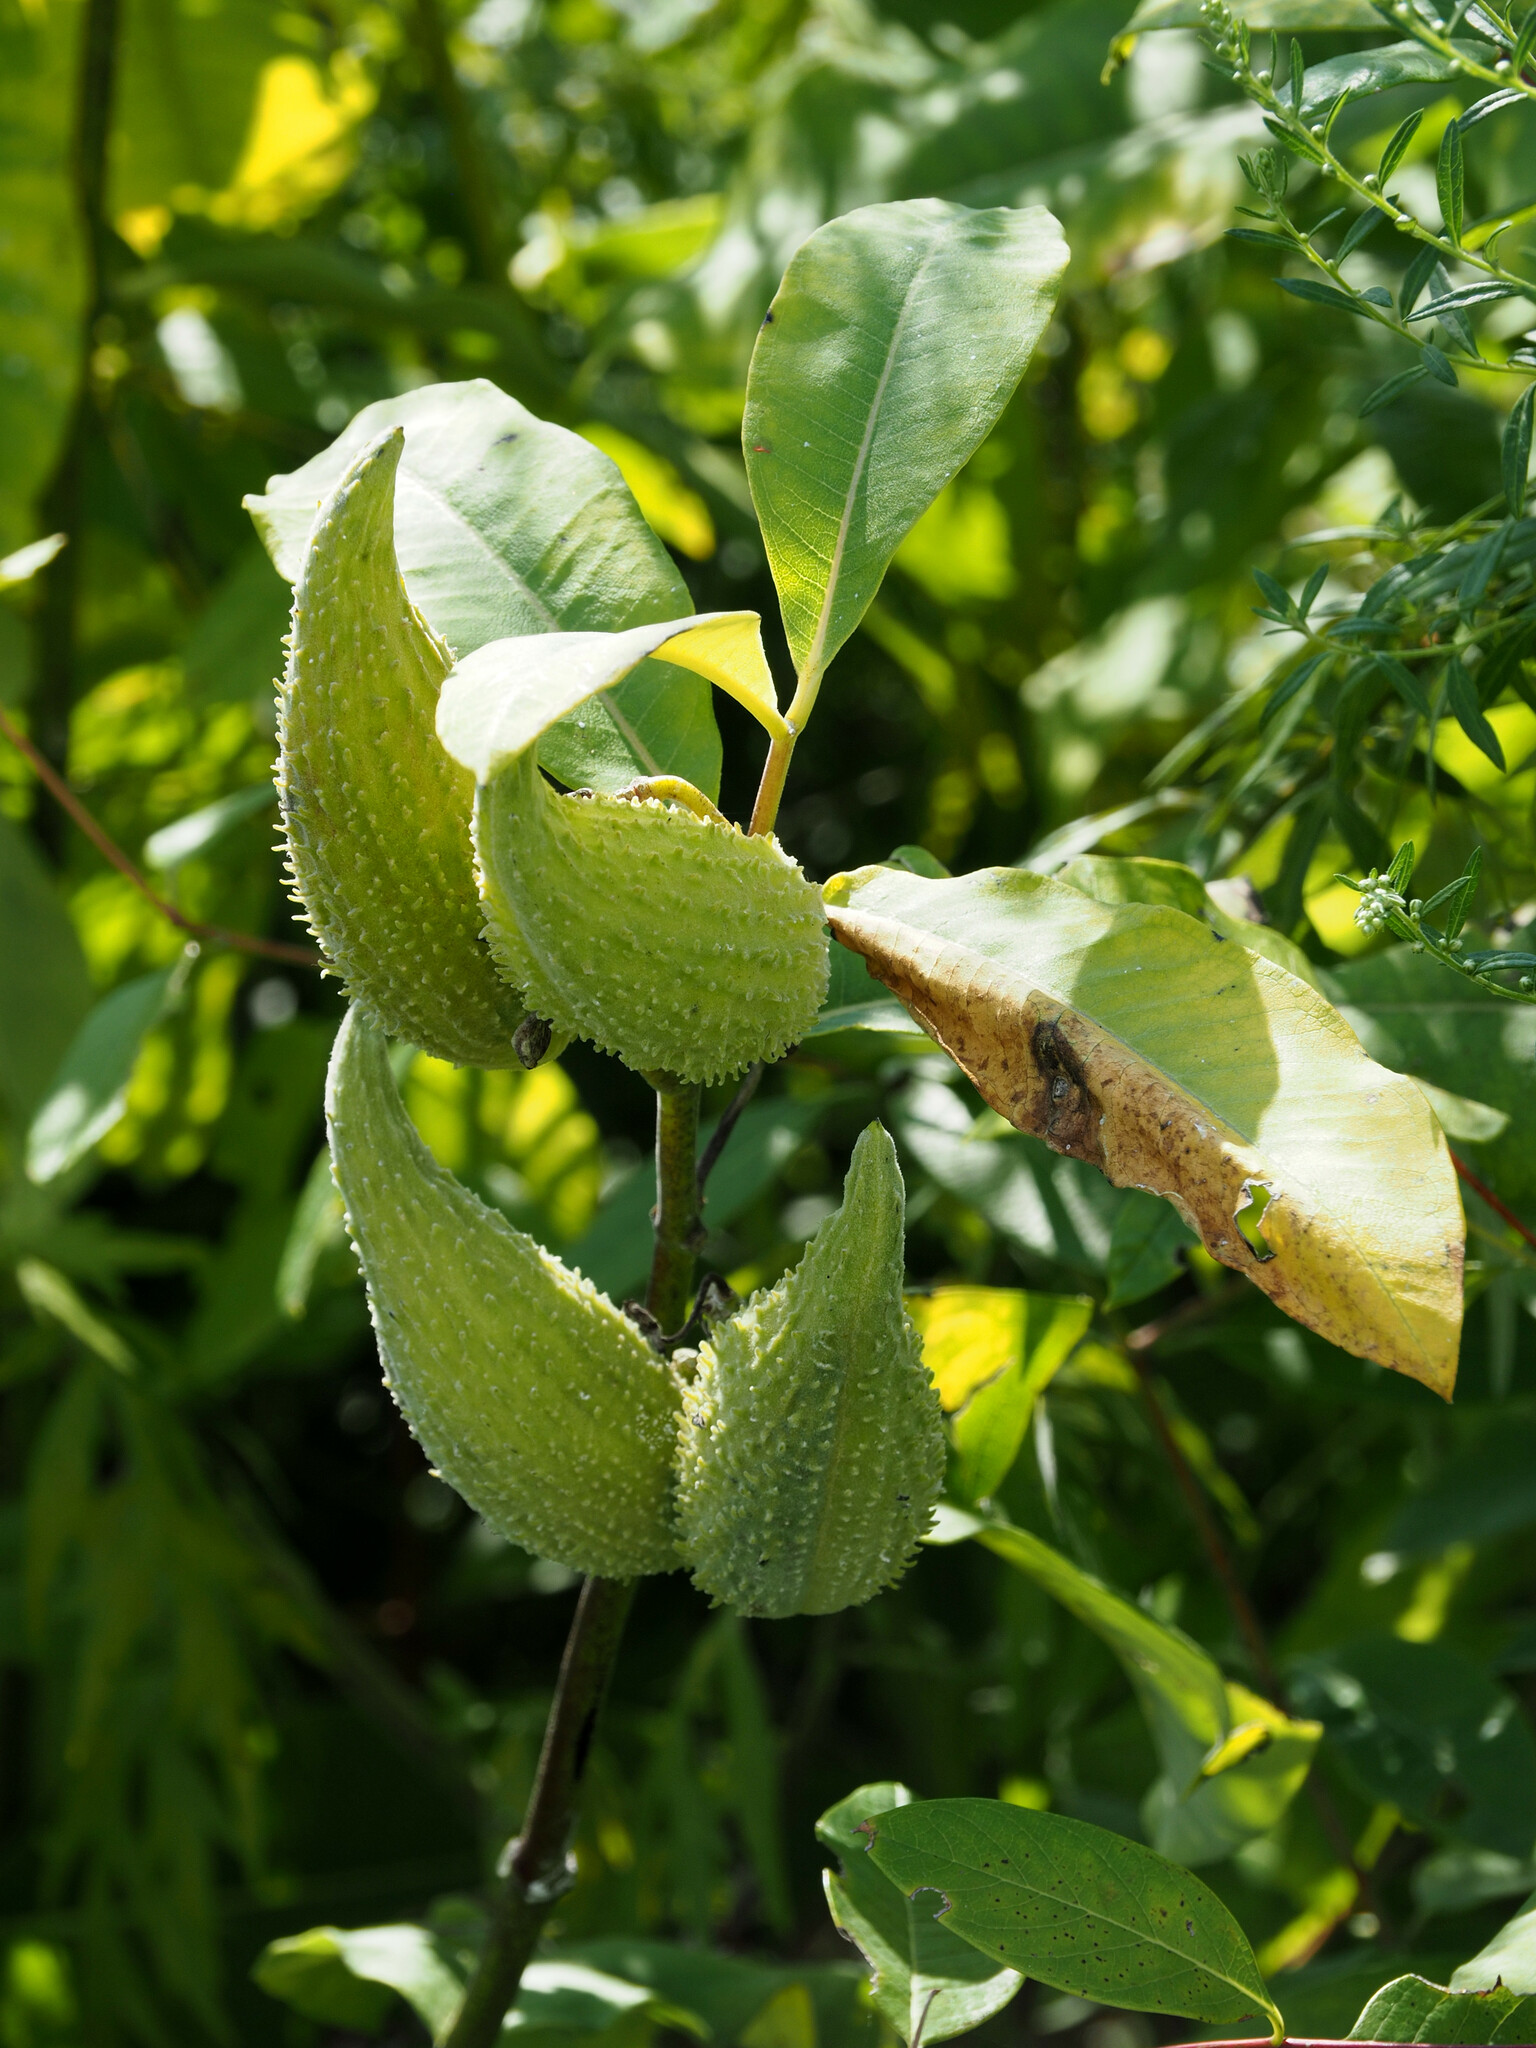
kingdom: Plantae
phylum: Tracheophyta
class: Magnoliopsida
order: Gentianales
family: Apocynaceae
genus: Asclepias
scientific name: Asclepias syriaca
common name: Common milkweed
